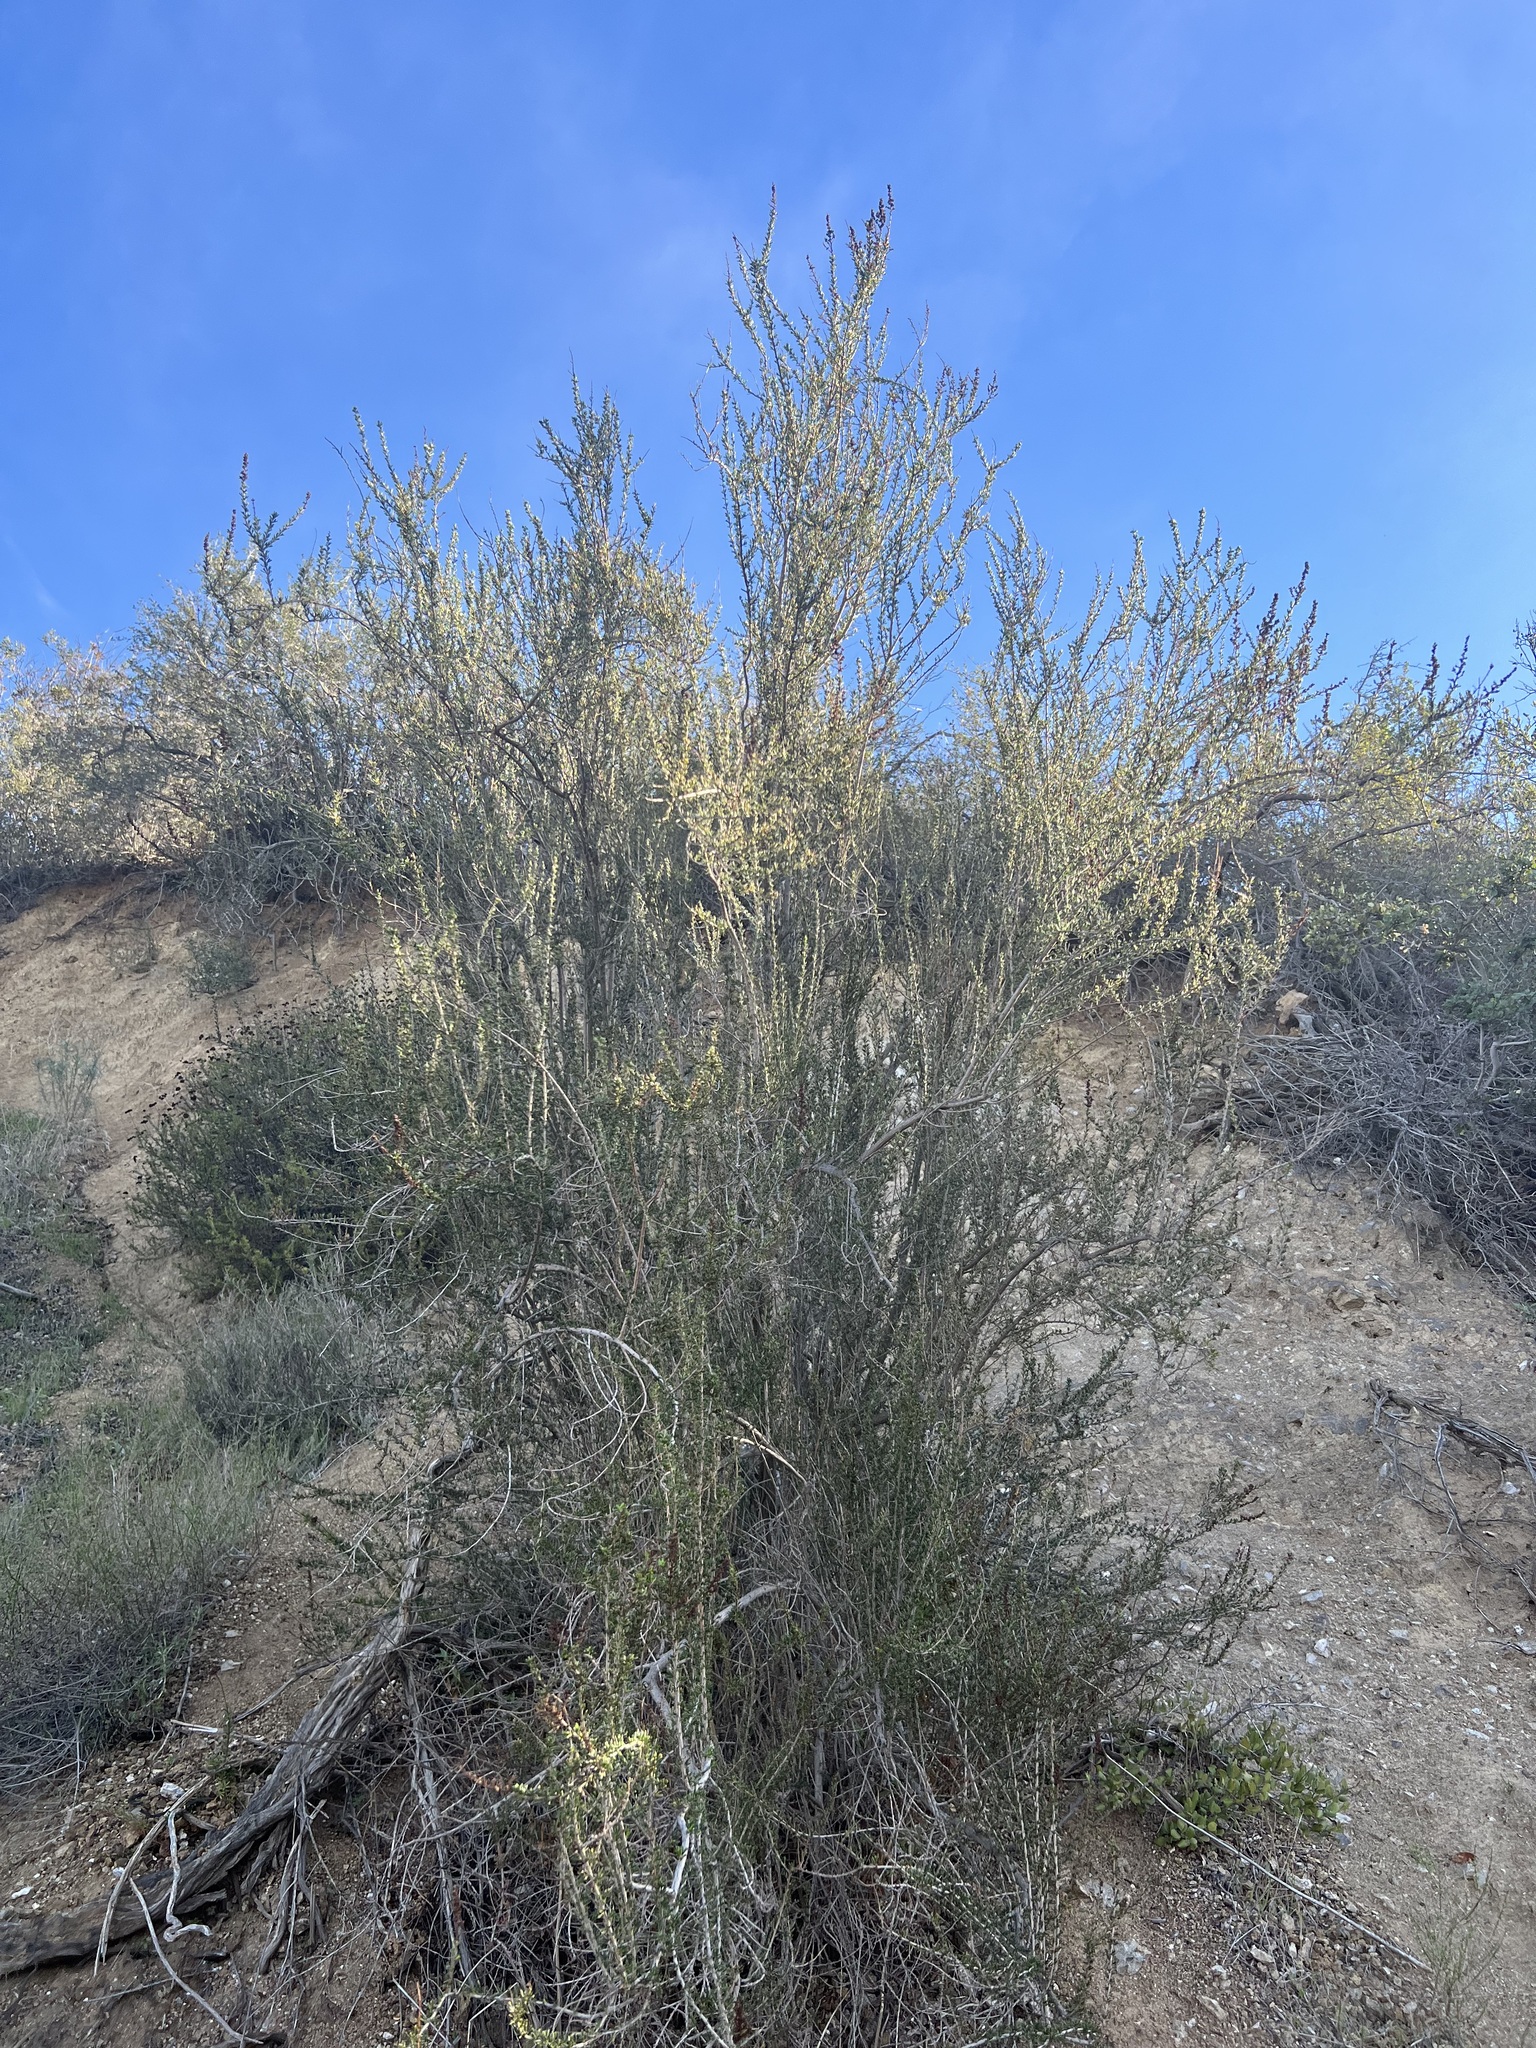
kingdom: Plantae
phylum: Tracheophyta
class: Magnoliopsida
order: Rosales
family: Rosaceae
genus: Adenostoma
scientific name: Adenostoma fasciculatum
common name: Chamise
